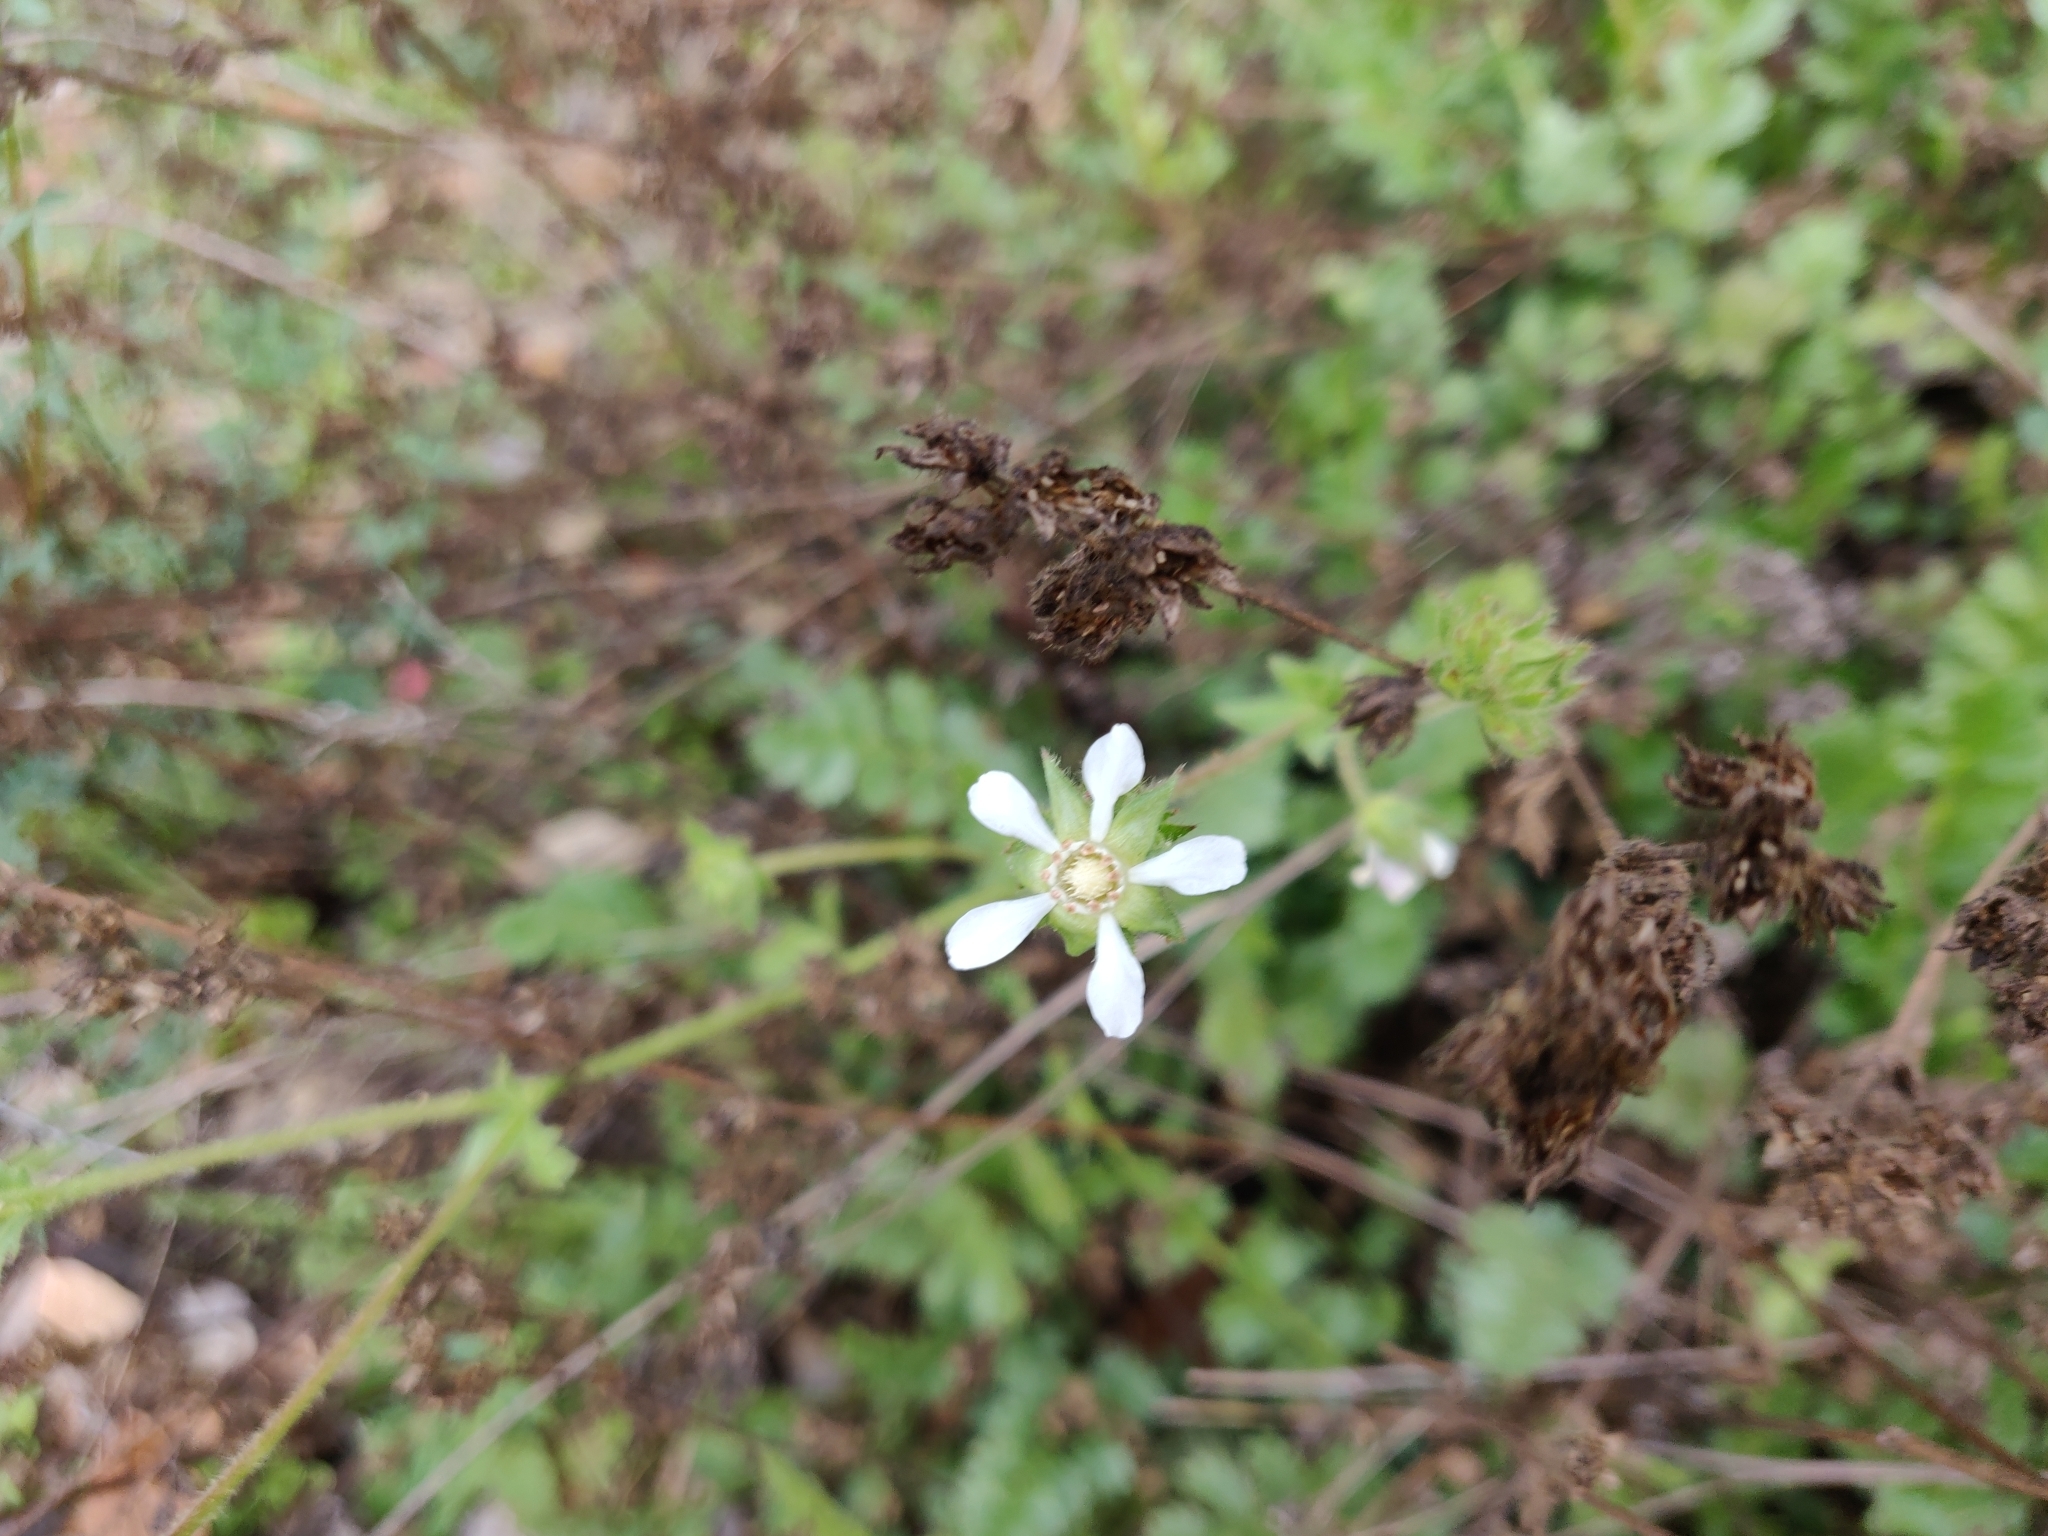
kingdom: Plantae
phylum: Tracheophyta
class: Magnoliopsida
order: Rosales
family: Rosaceae
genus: Potentilla
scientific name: Potentilla
